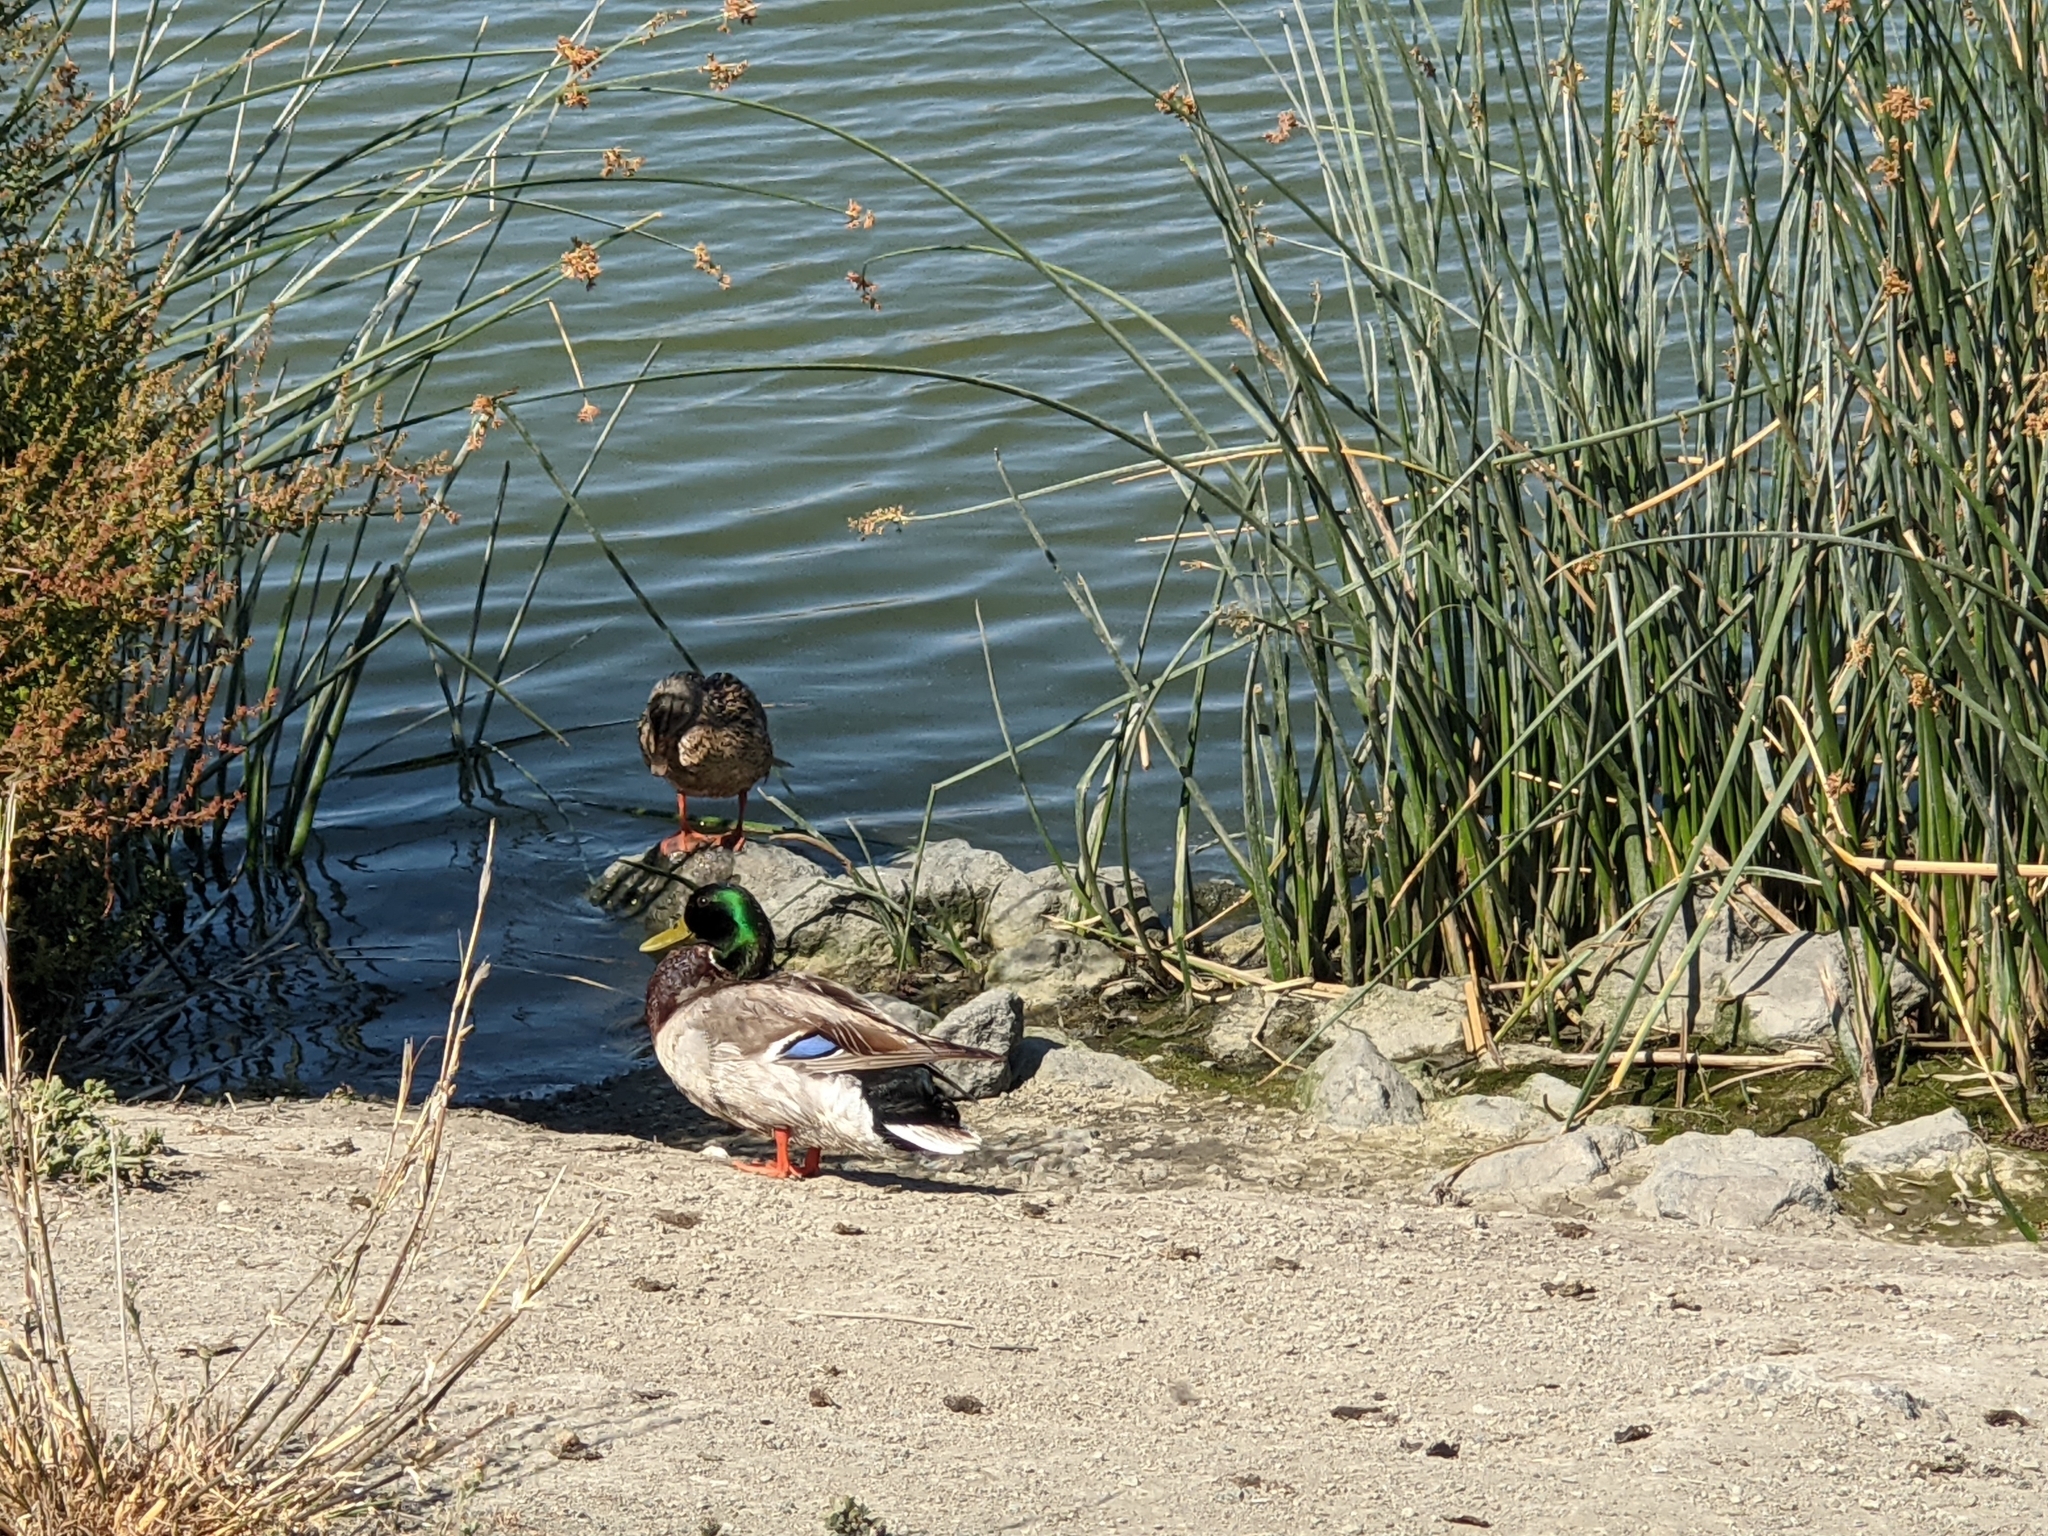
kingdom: Animalia
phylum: Chordata
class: Aves
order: Anseriformes
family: Anatidae
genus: Anas
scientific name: Anas platyrhynchos
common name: Mallard
